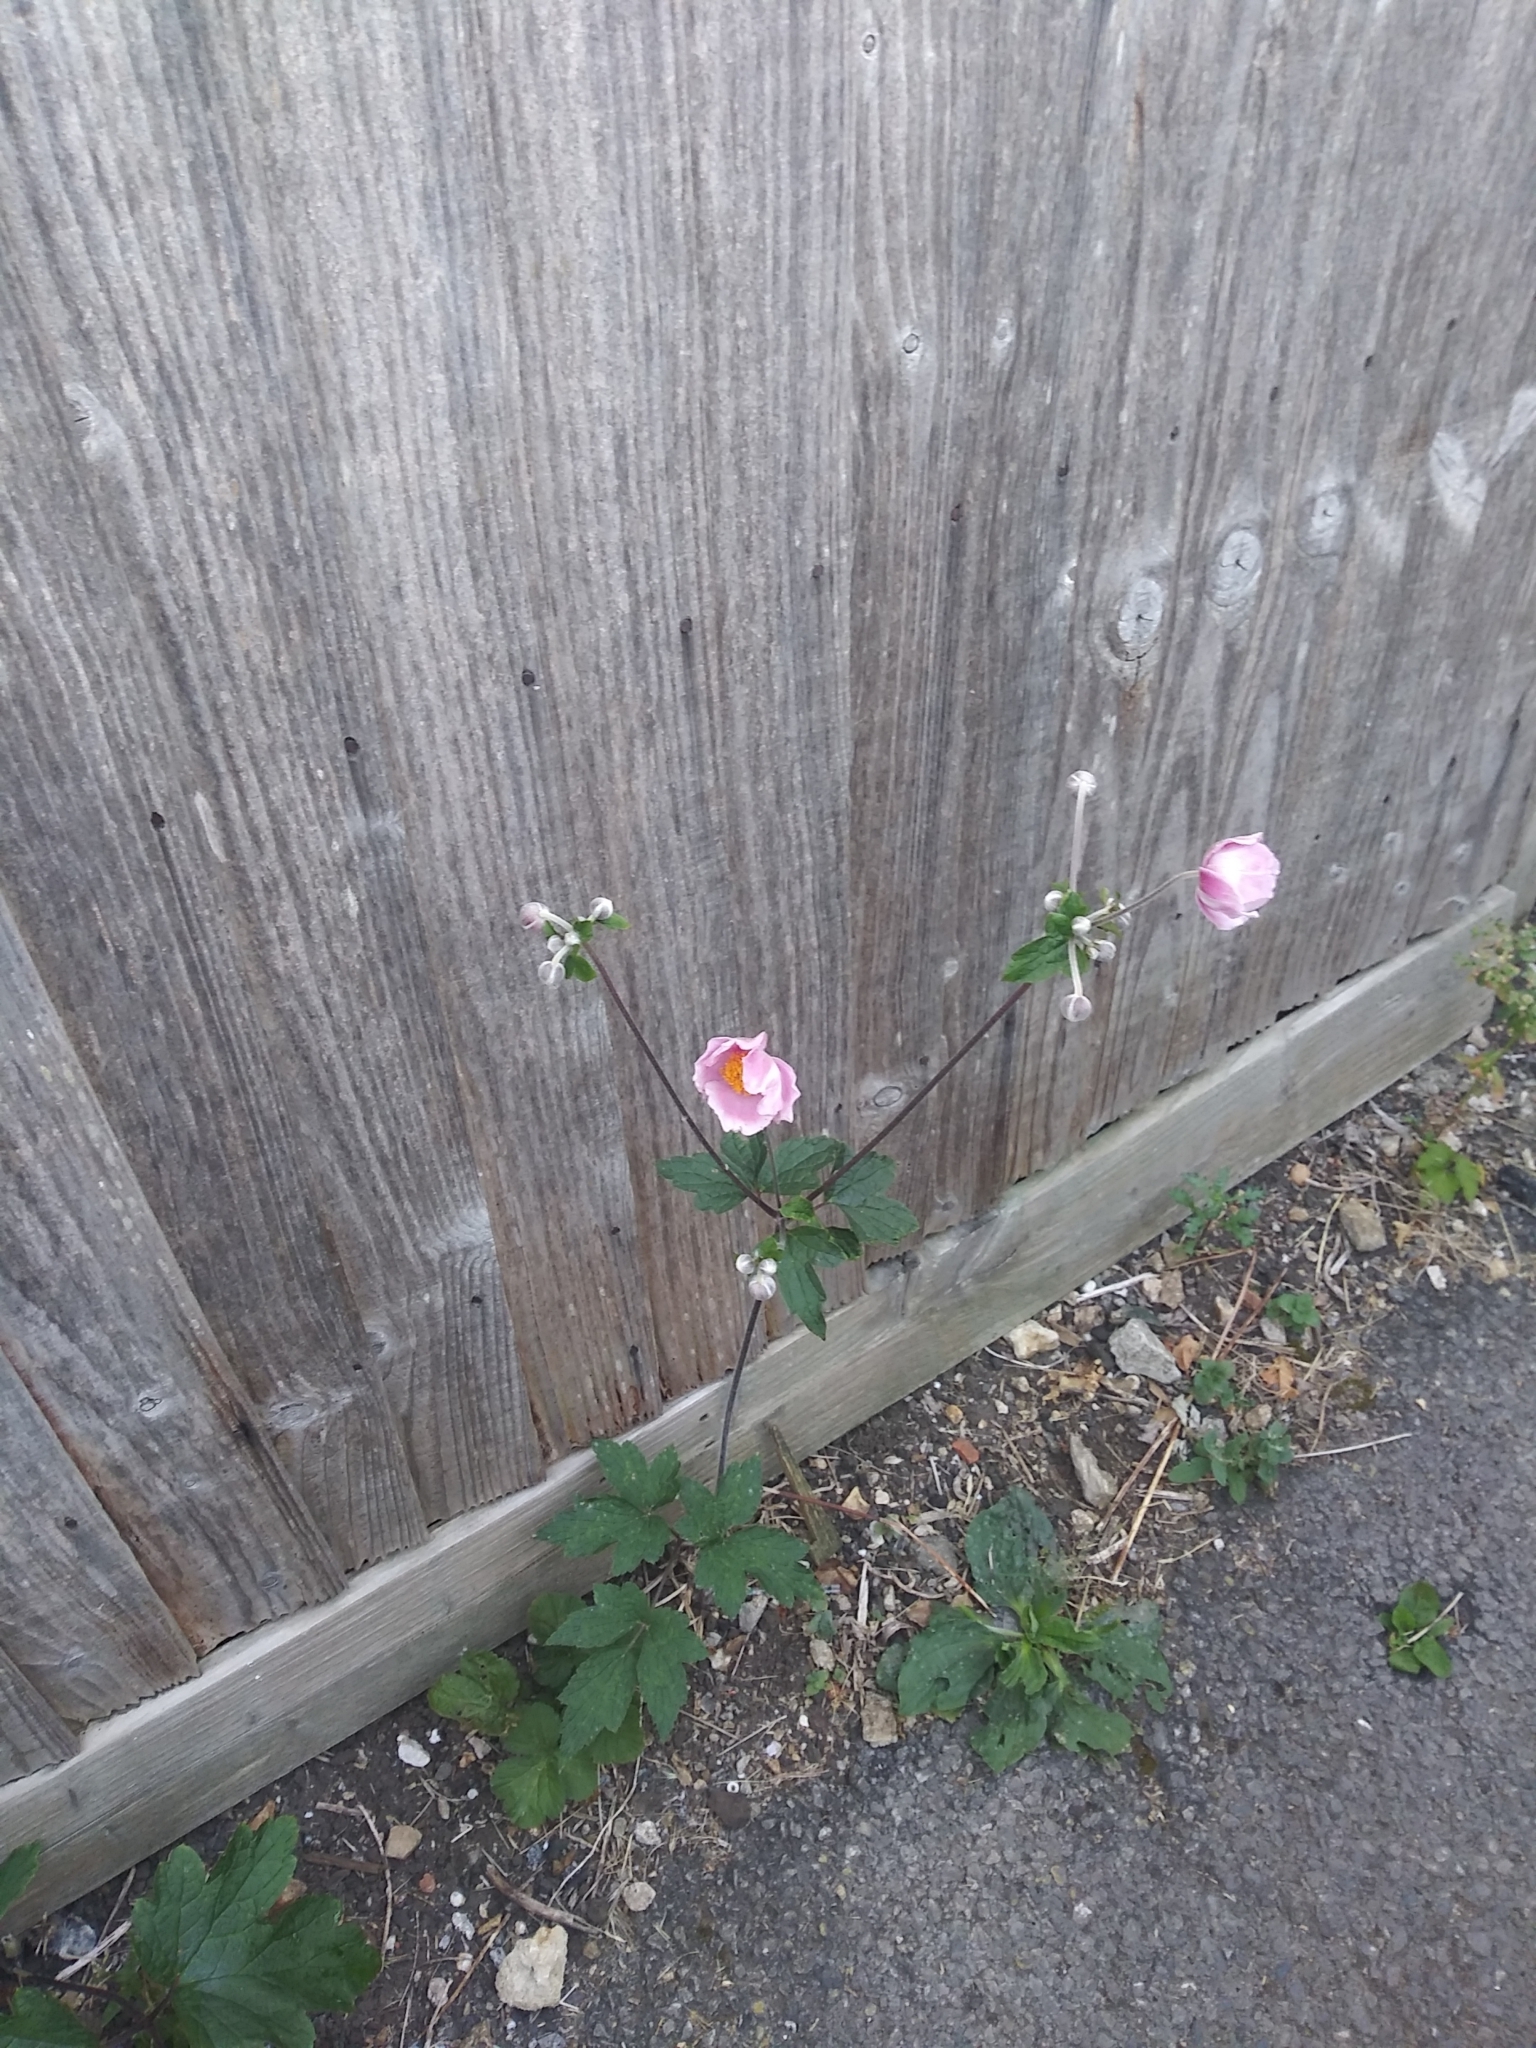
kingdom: Plantae
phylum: Tracheophyta
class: Magnoliopsida
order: Ranunculales
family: Ranunculaceae
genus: Eriocapitella
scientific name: Eriocapitella hupehensis
